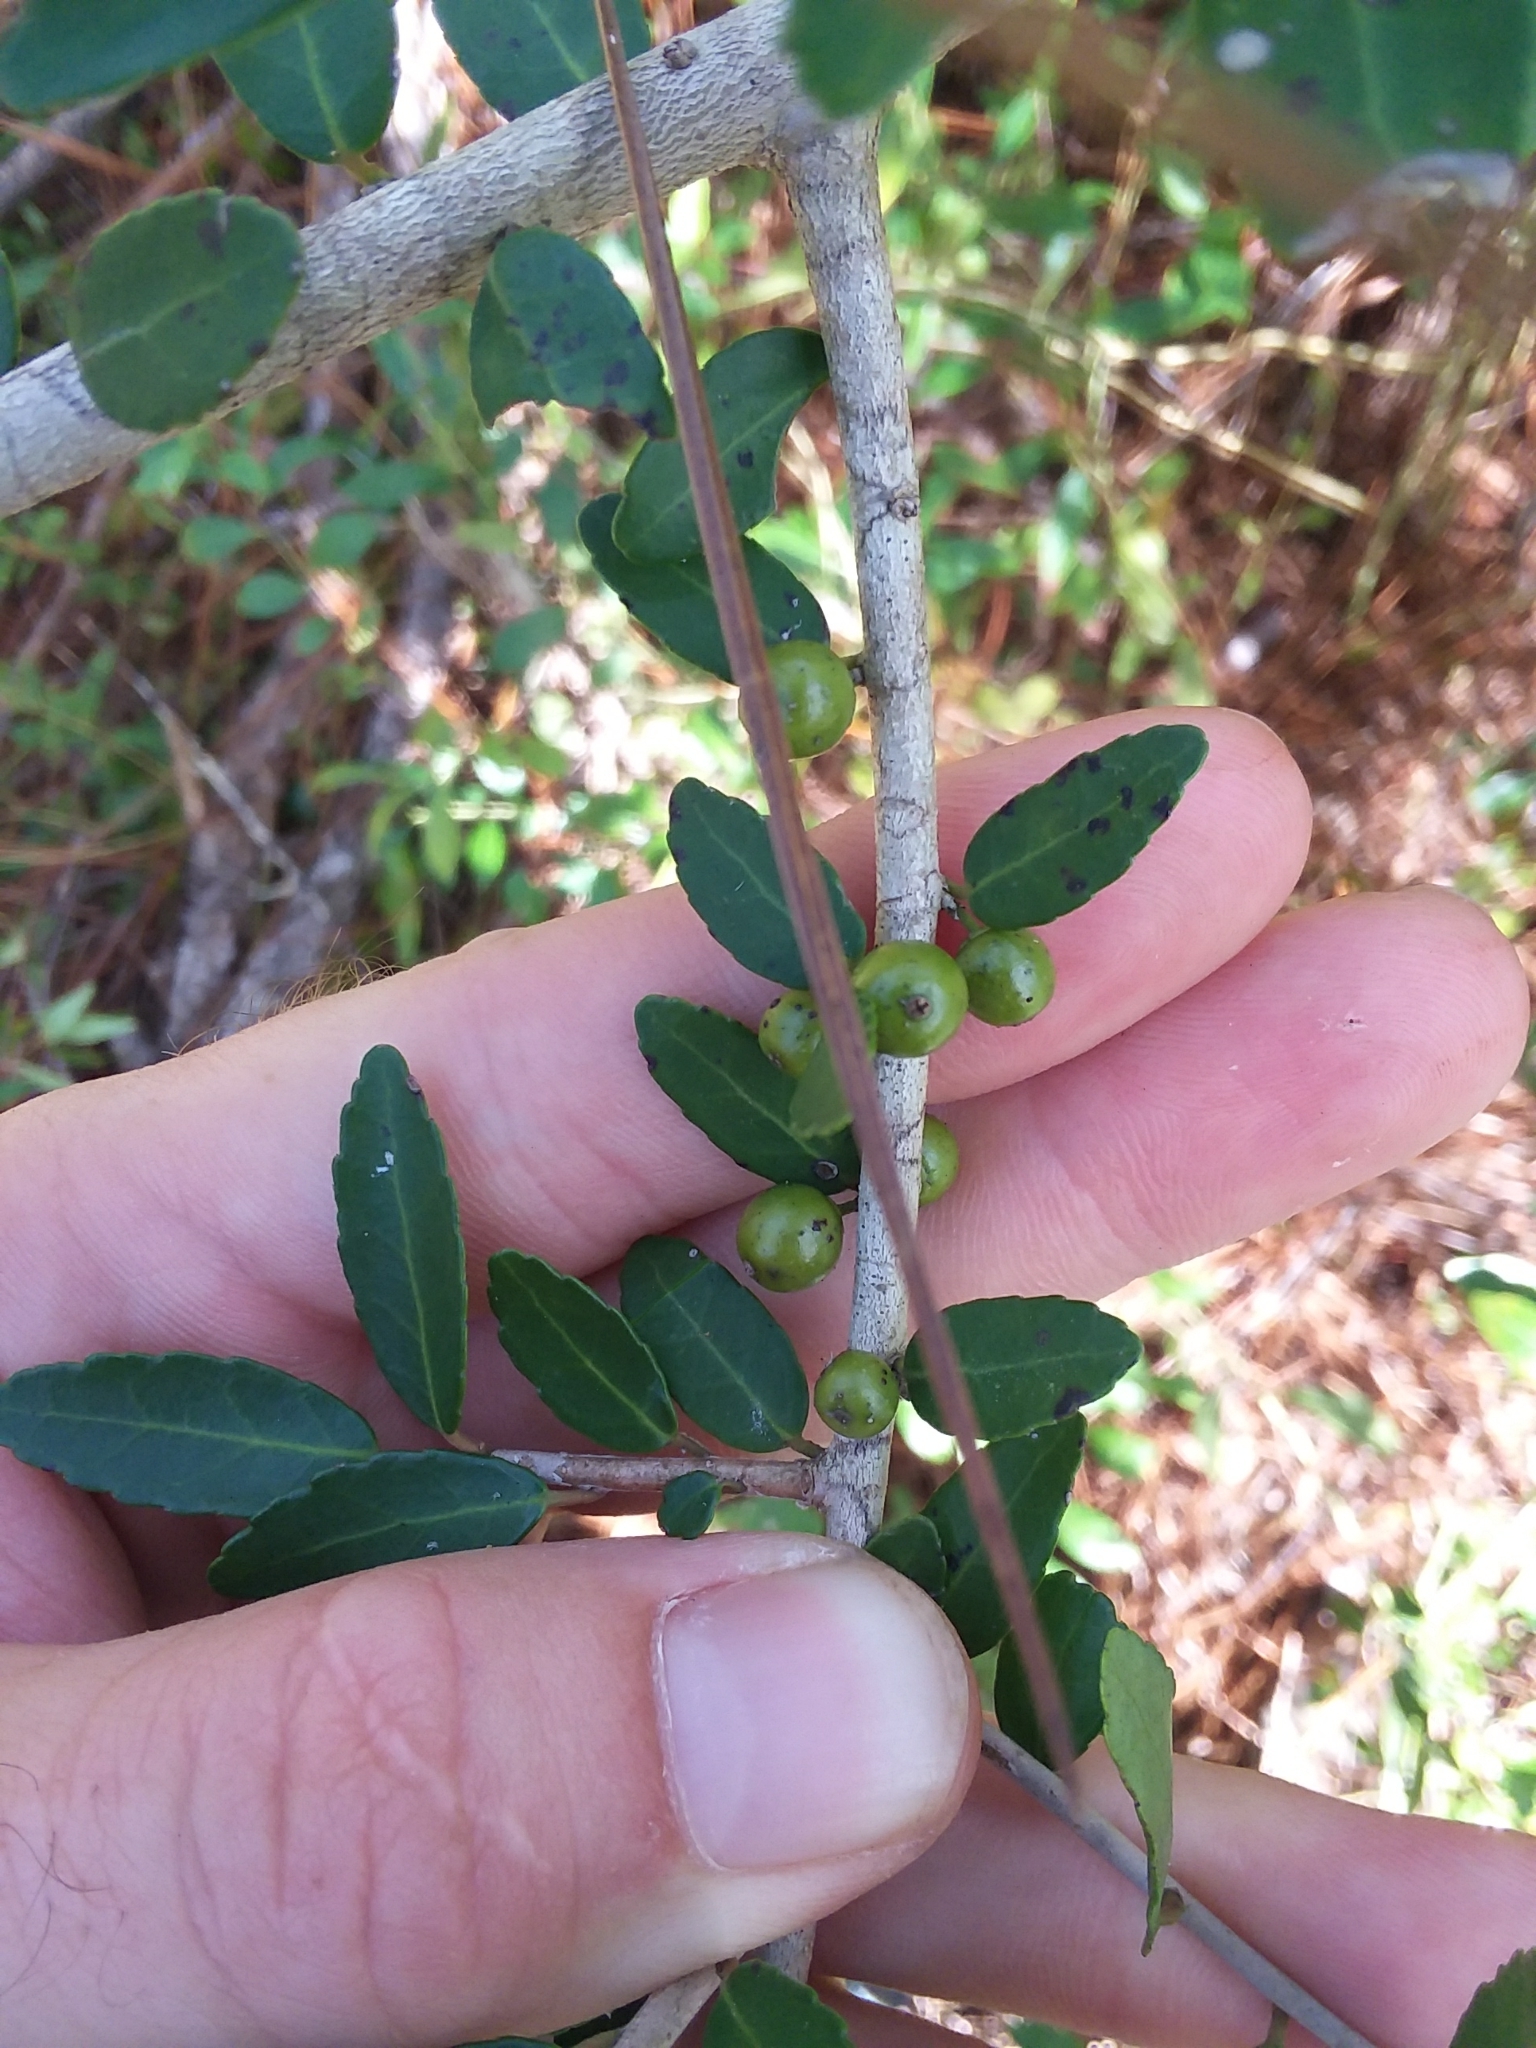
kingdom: Plantae
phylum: Tracheophyta
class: Magnoliopsida
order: Aquifoliales
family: Aquifoliaceae
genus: Ilex
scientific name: Ilex vomitoria
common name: Yaupon holly
